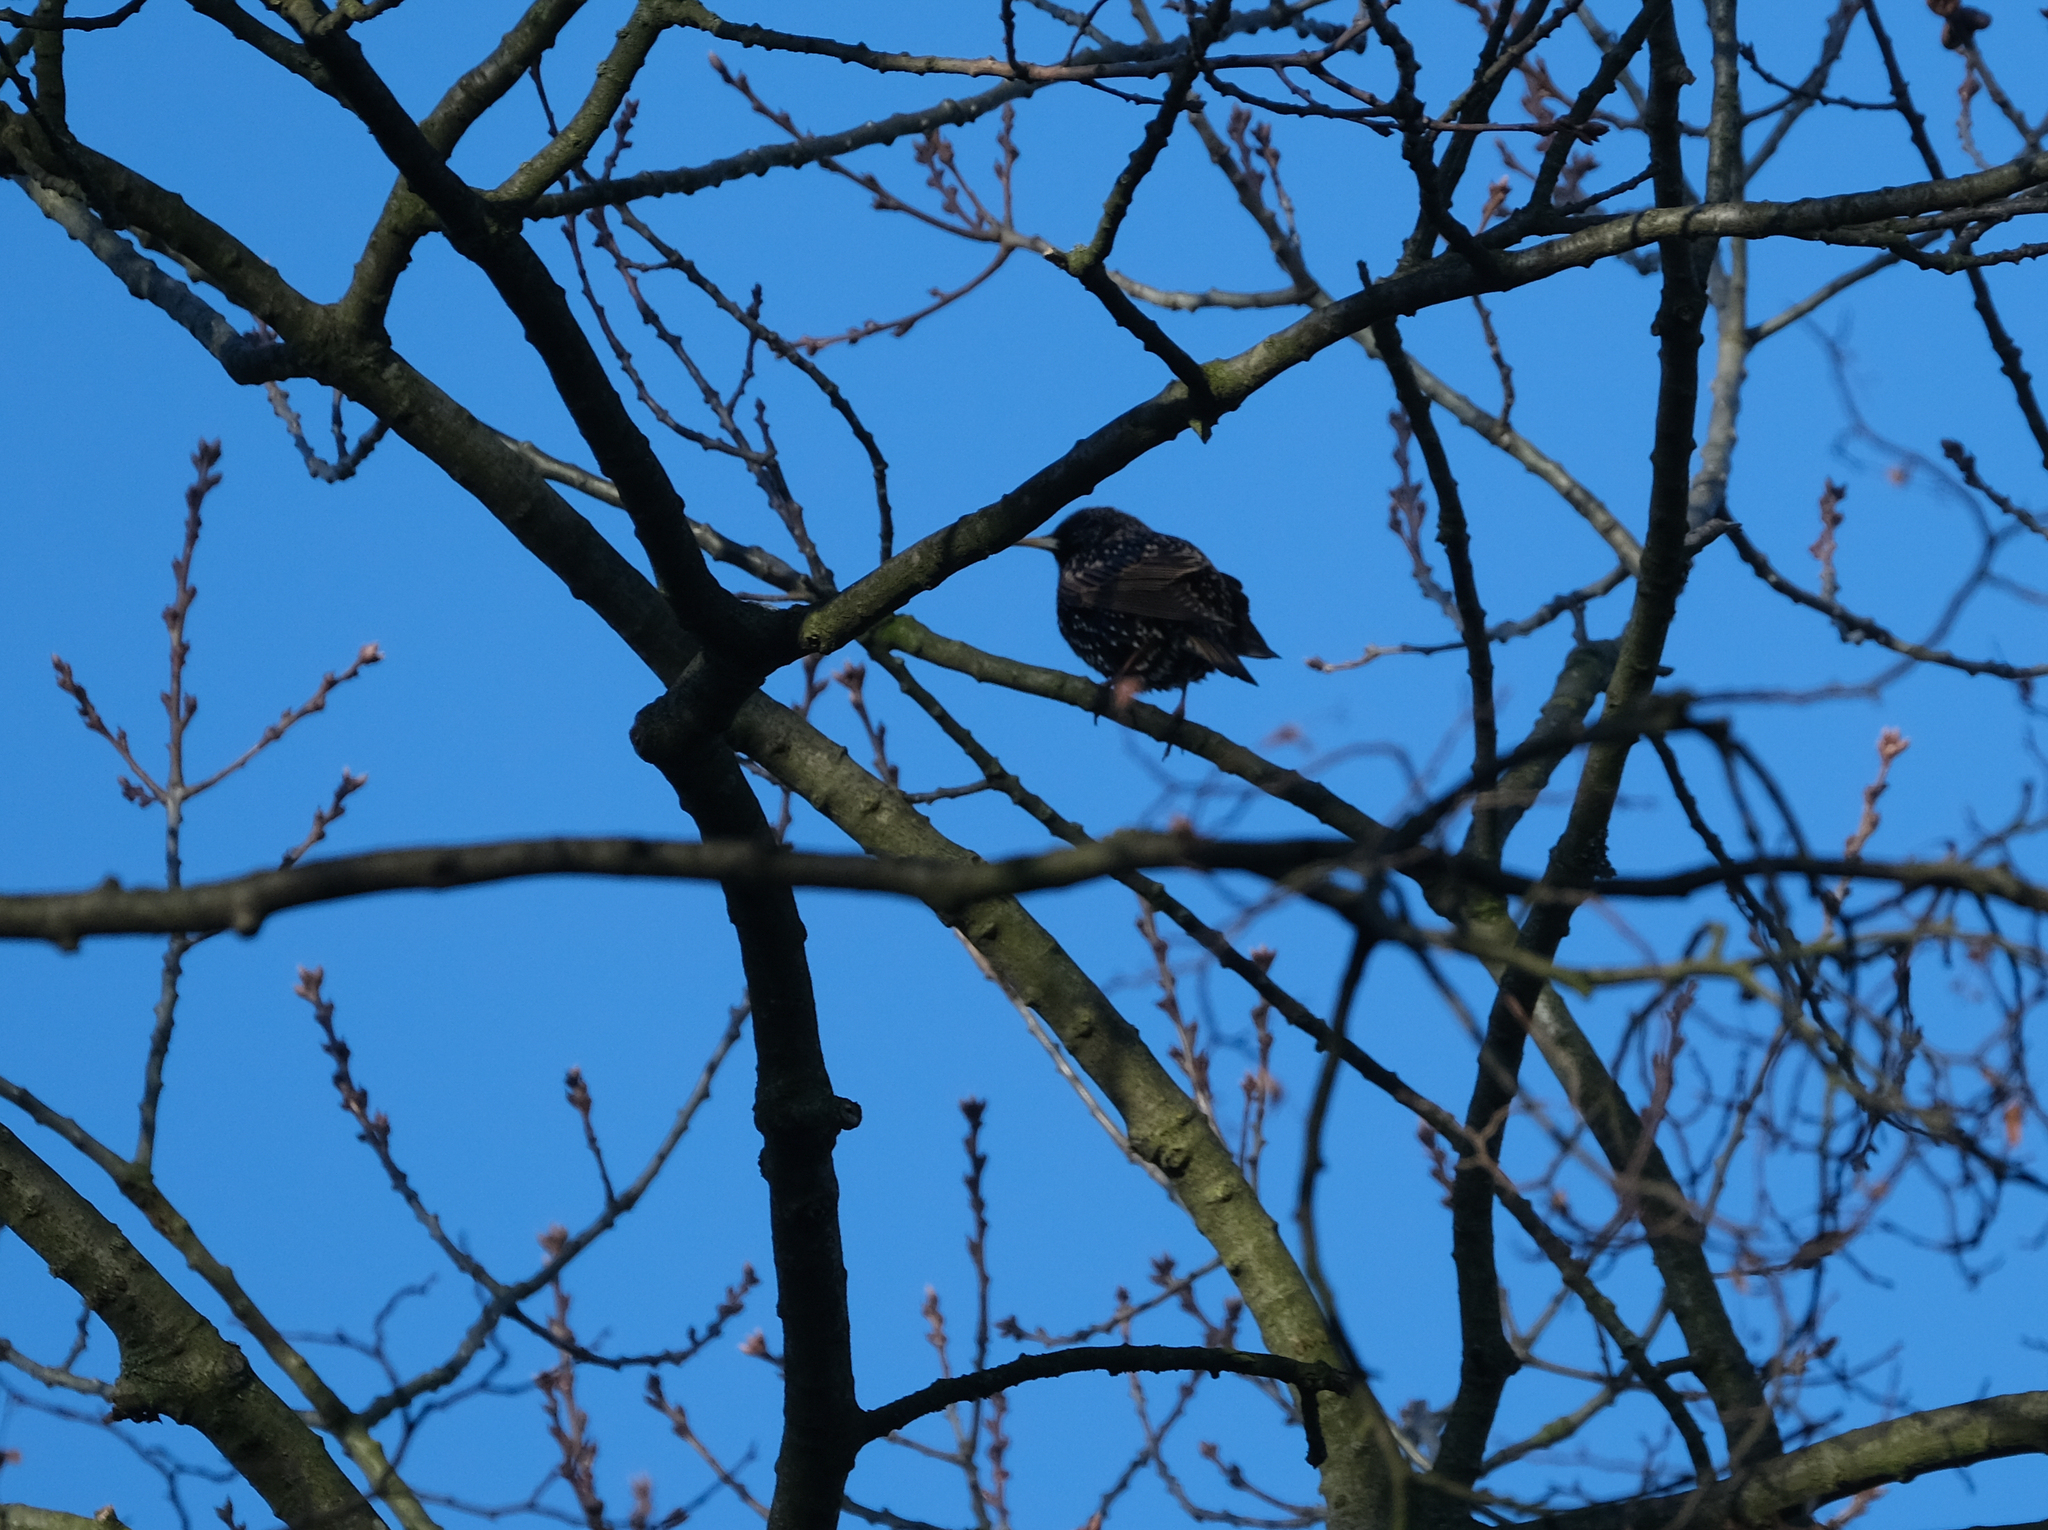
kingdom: Animalia
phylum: Chordata
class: Aves
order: Passeriformes
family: Sturnidae
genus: Sturnus
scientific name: Sturnus vulgaris
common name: Common starling
